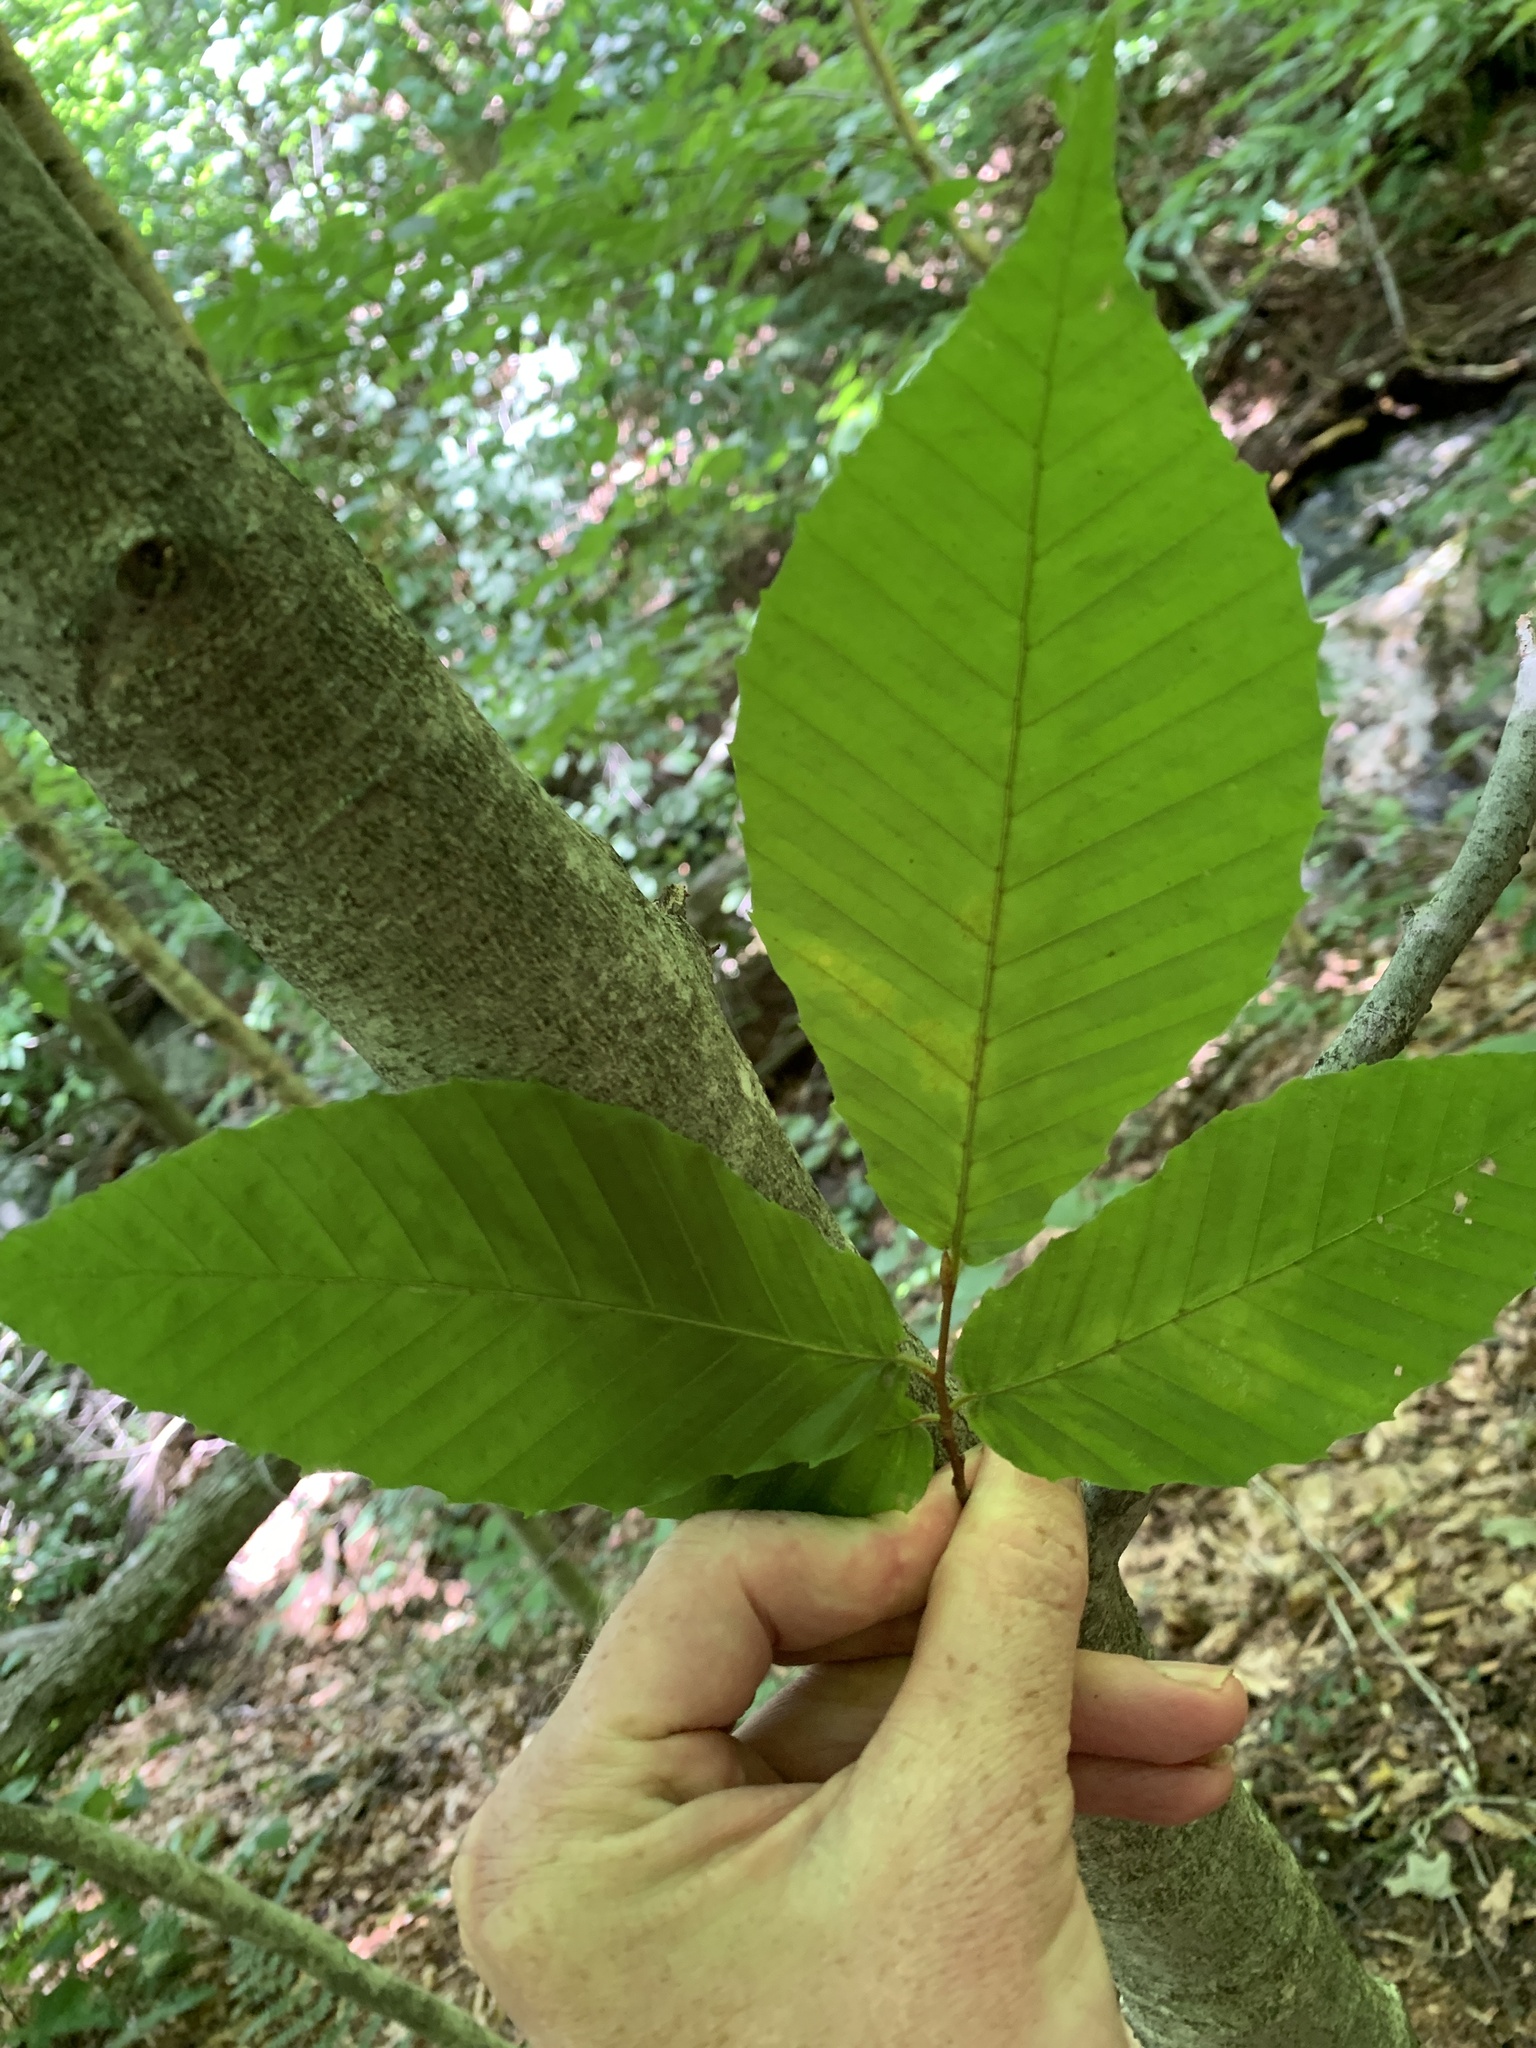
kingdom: Plantae
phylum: Tracheophyta
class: Magnoliopsida
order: Fagales
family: Fagaceae
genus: Fagus
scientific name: Fagus grandifolia
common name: American beech
